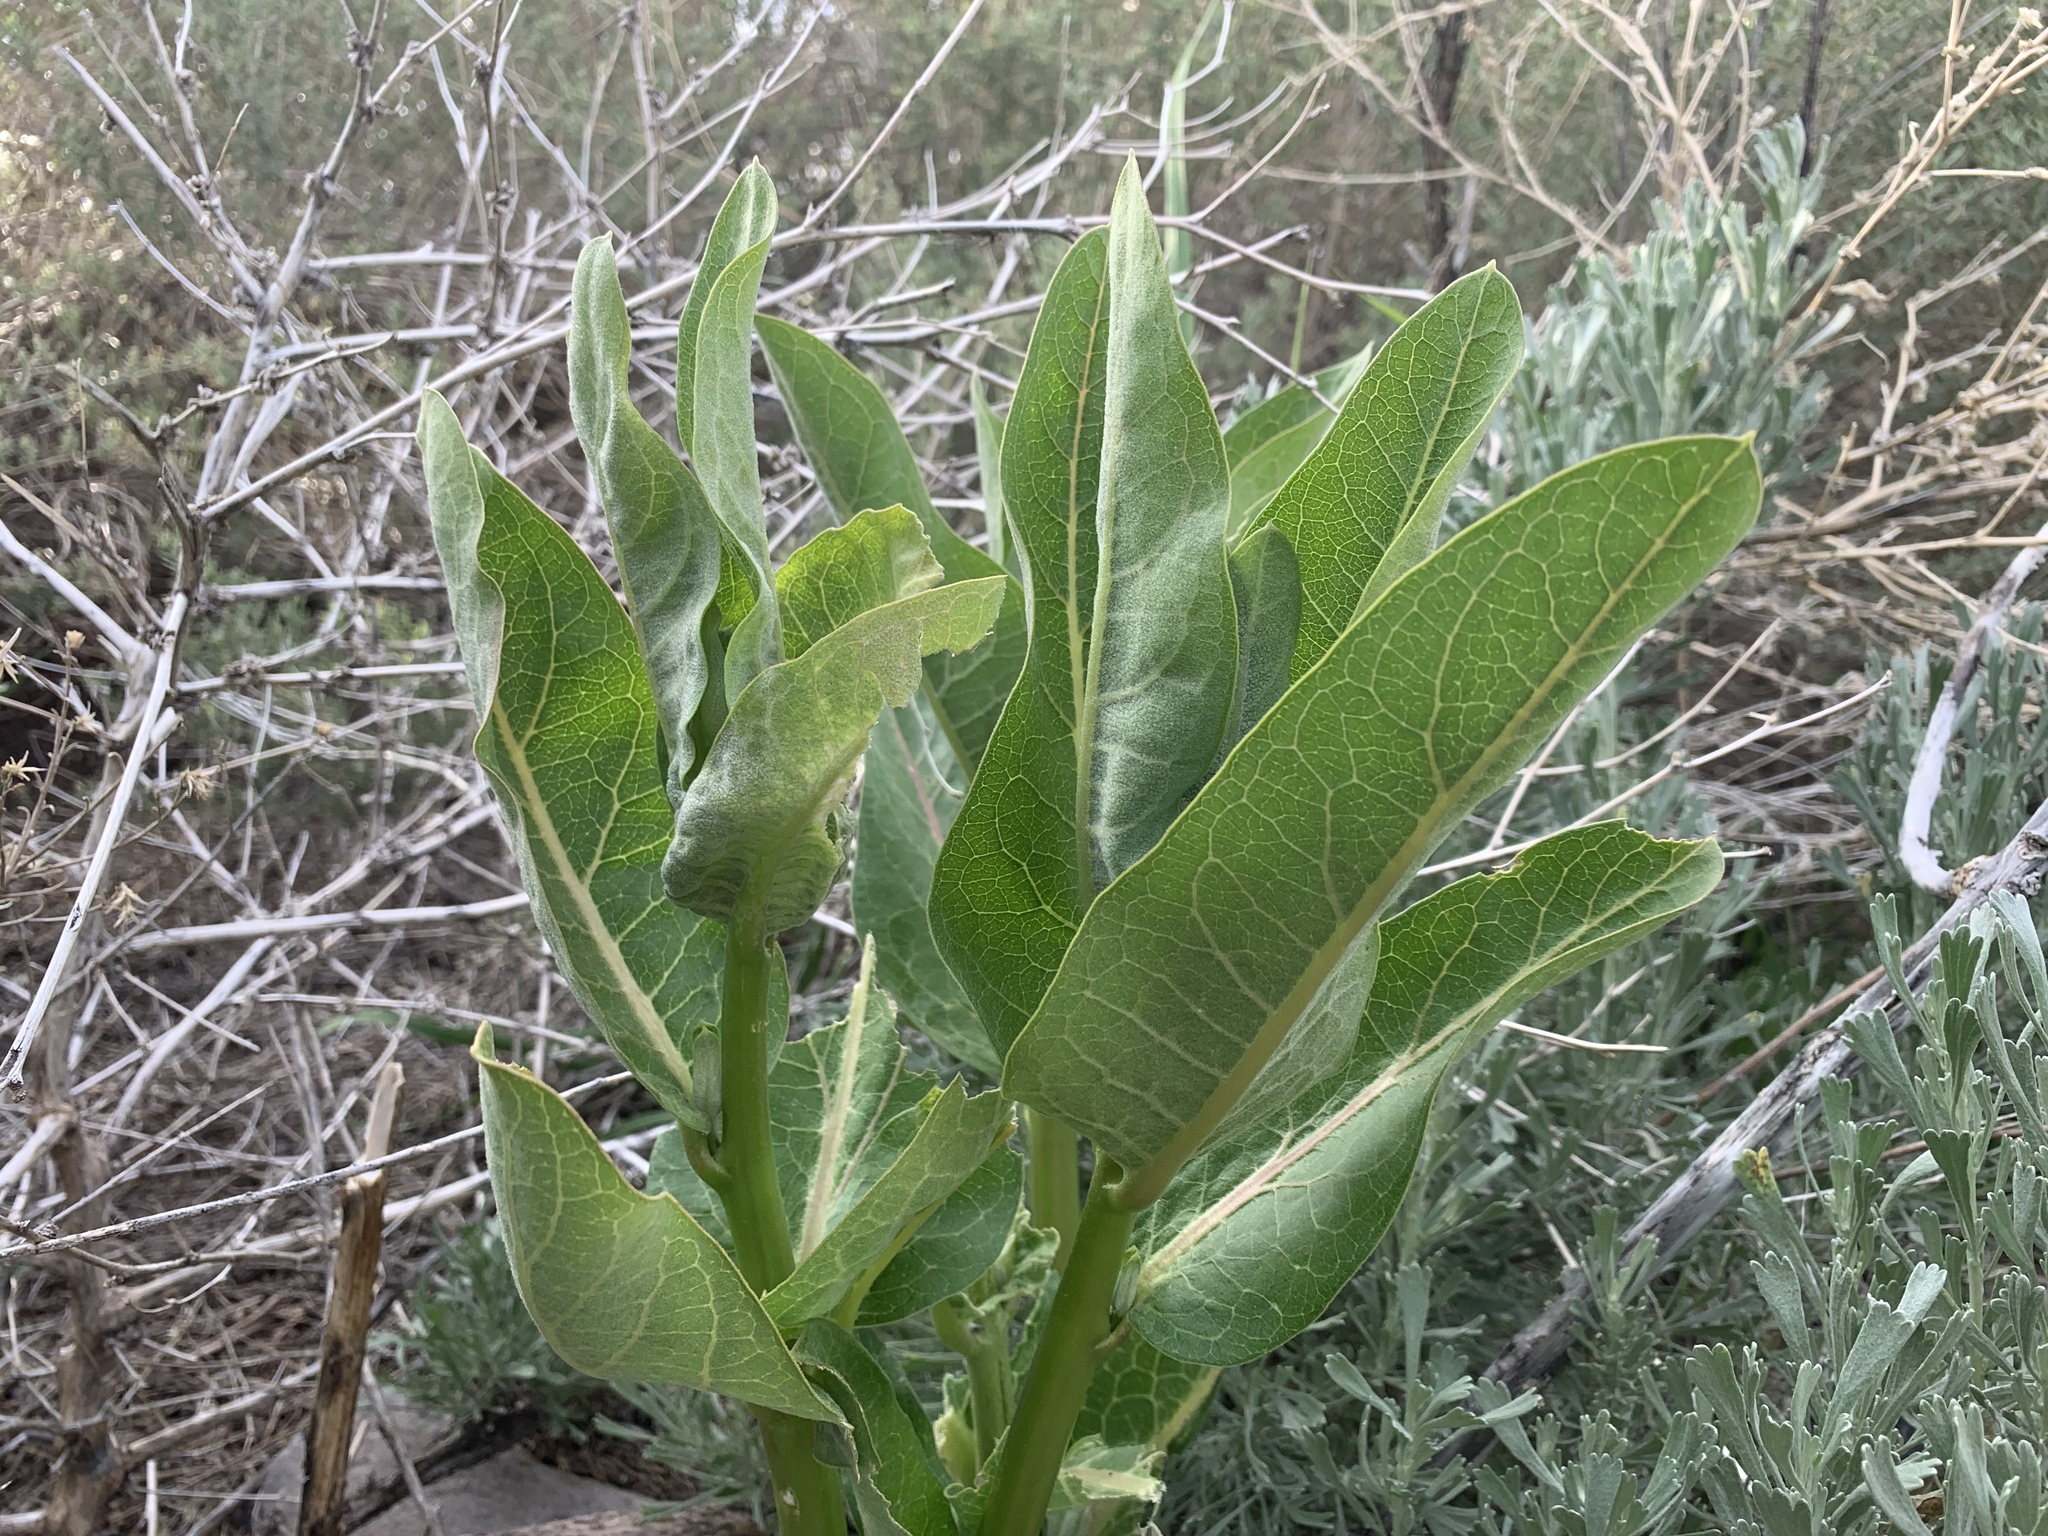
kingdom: Plantae
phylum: Tracheophyta
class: Magnoliopsida
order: Gentianales
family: Apocynaceae
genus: Asclepias
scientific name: Asclepias speciosa
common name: Showy milkweed
